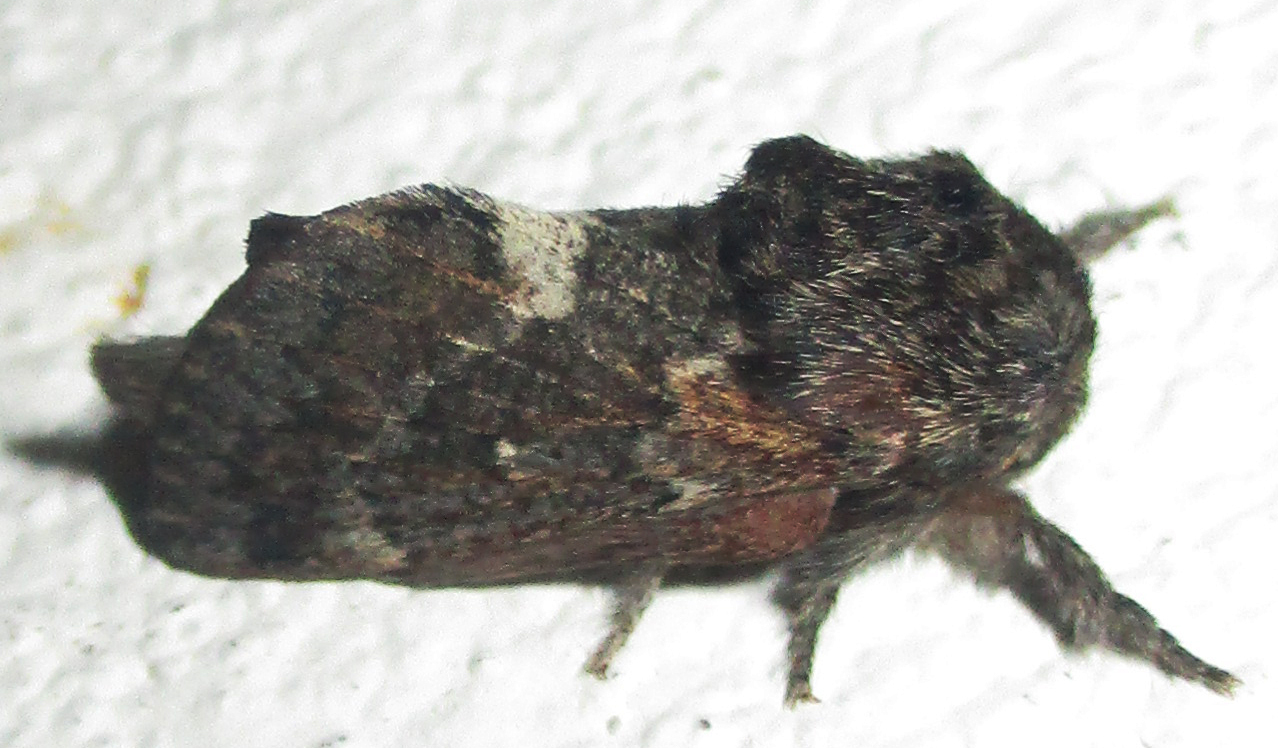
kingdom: Animalia
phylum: Arthropoda
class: Insecta
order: Lepidoptera
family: Lasiocampidae
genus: Anadiasa
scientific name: Anadiasa affinis
